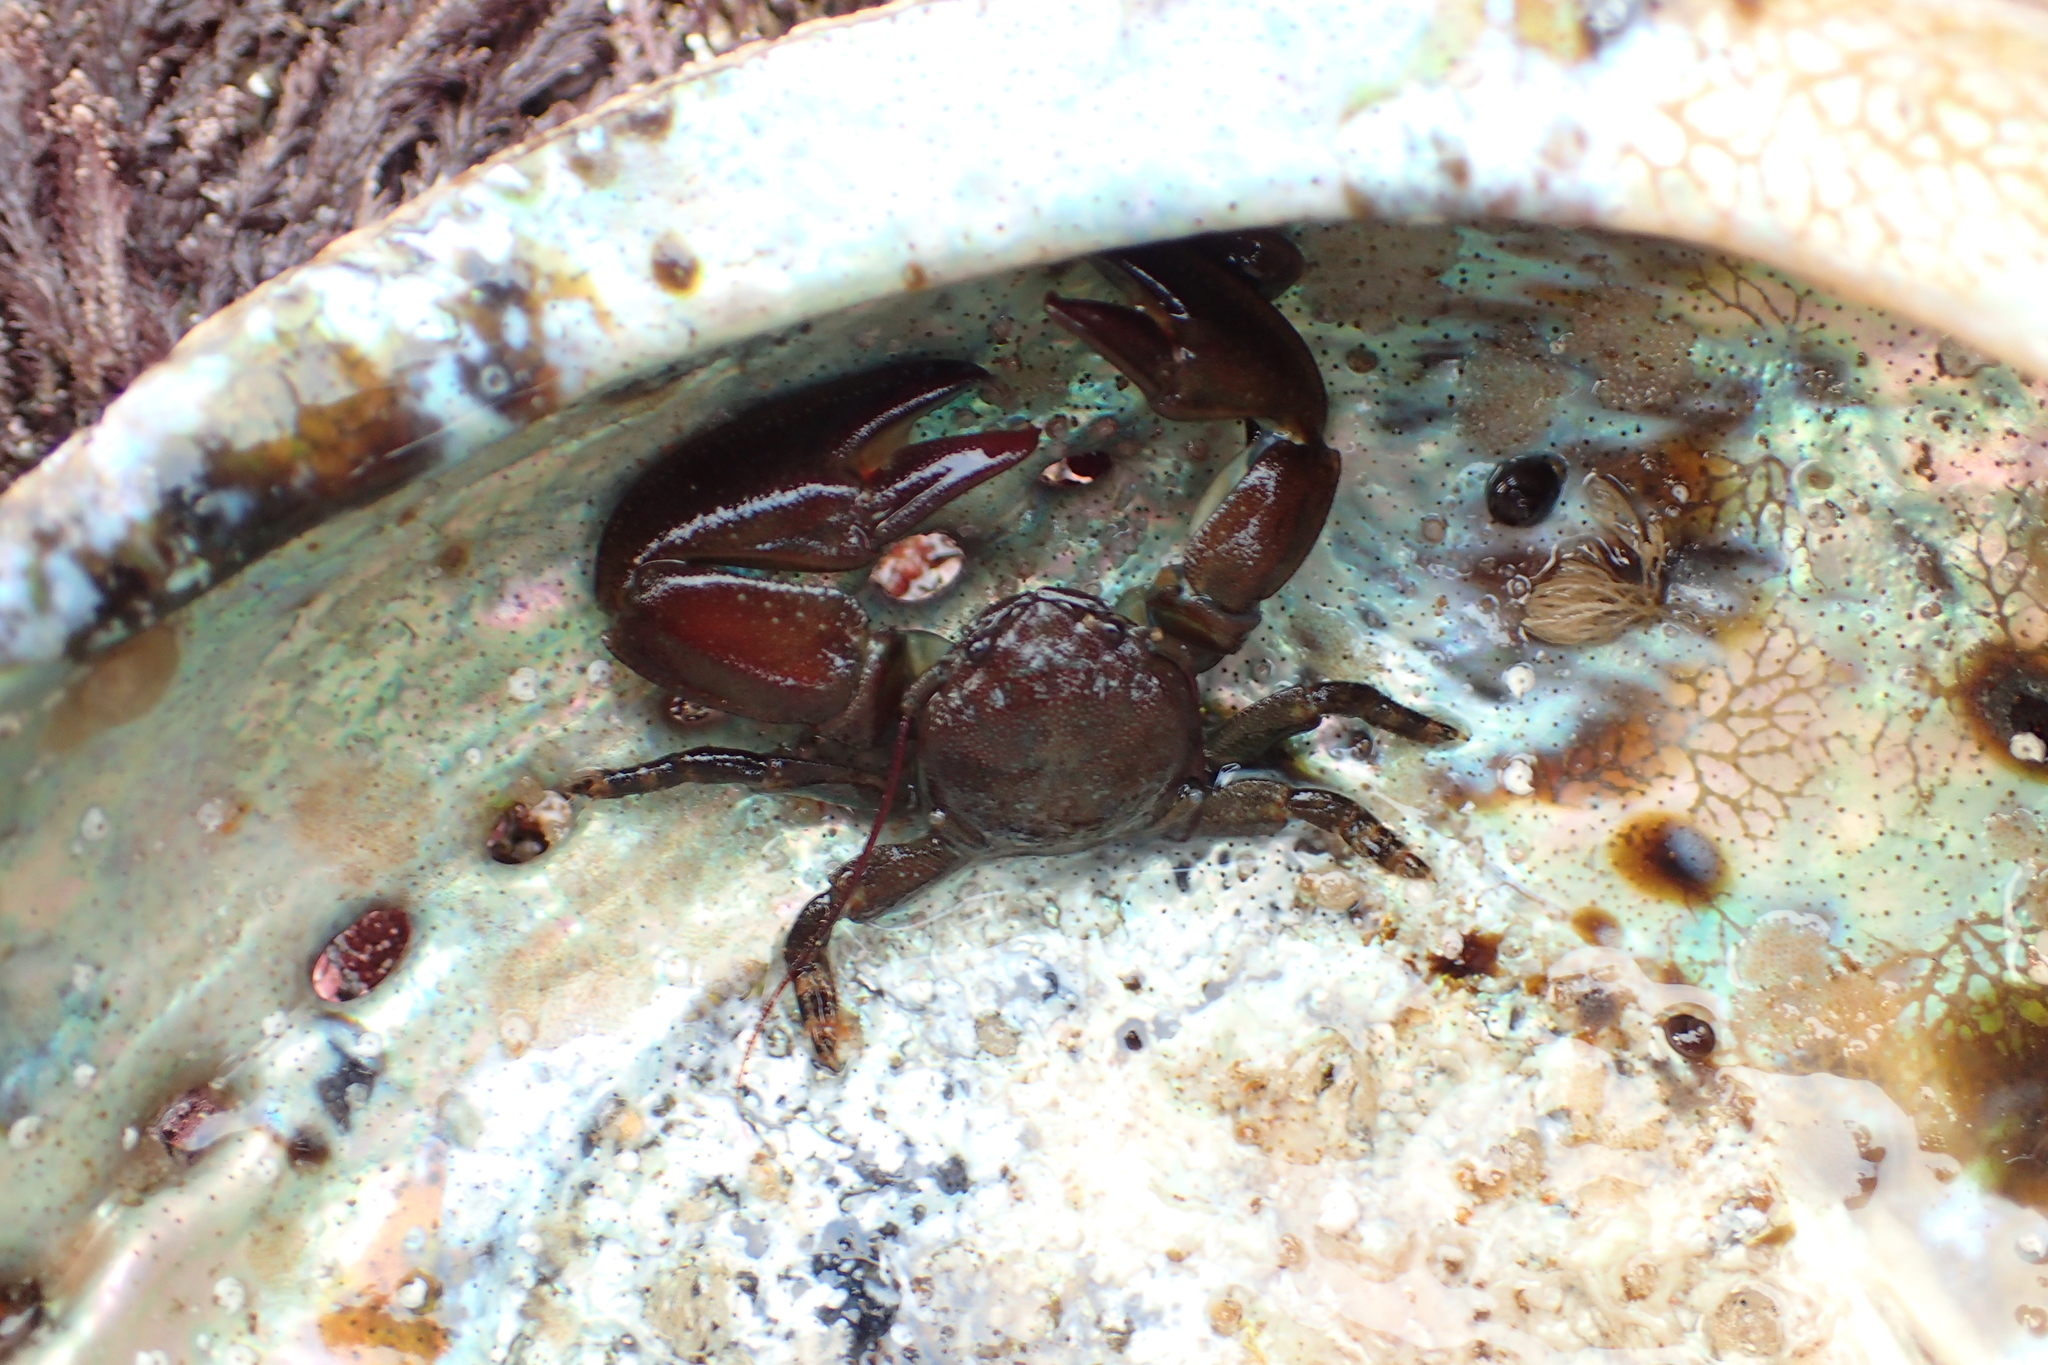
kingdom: Animalia
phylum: Arthropoda
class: Malacostraca
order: Decapoda
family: Porcellanidae
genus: Petrolisthes
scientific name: Petrolisthes cinctipes
